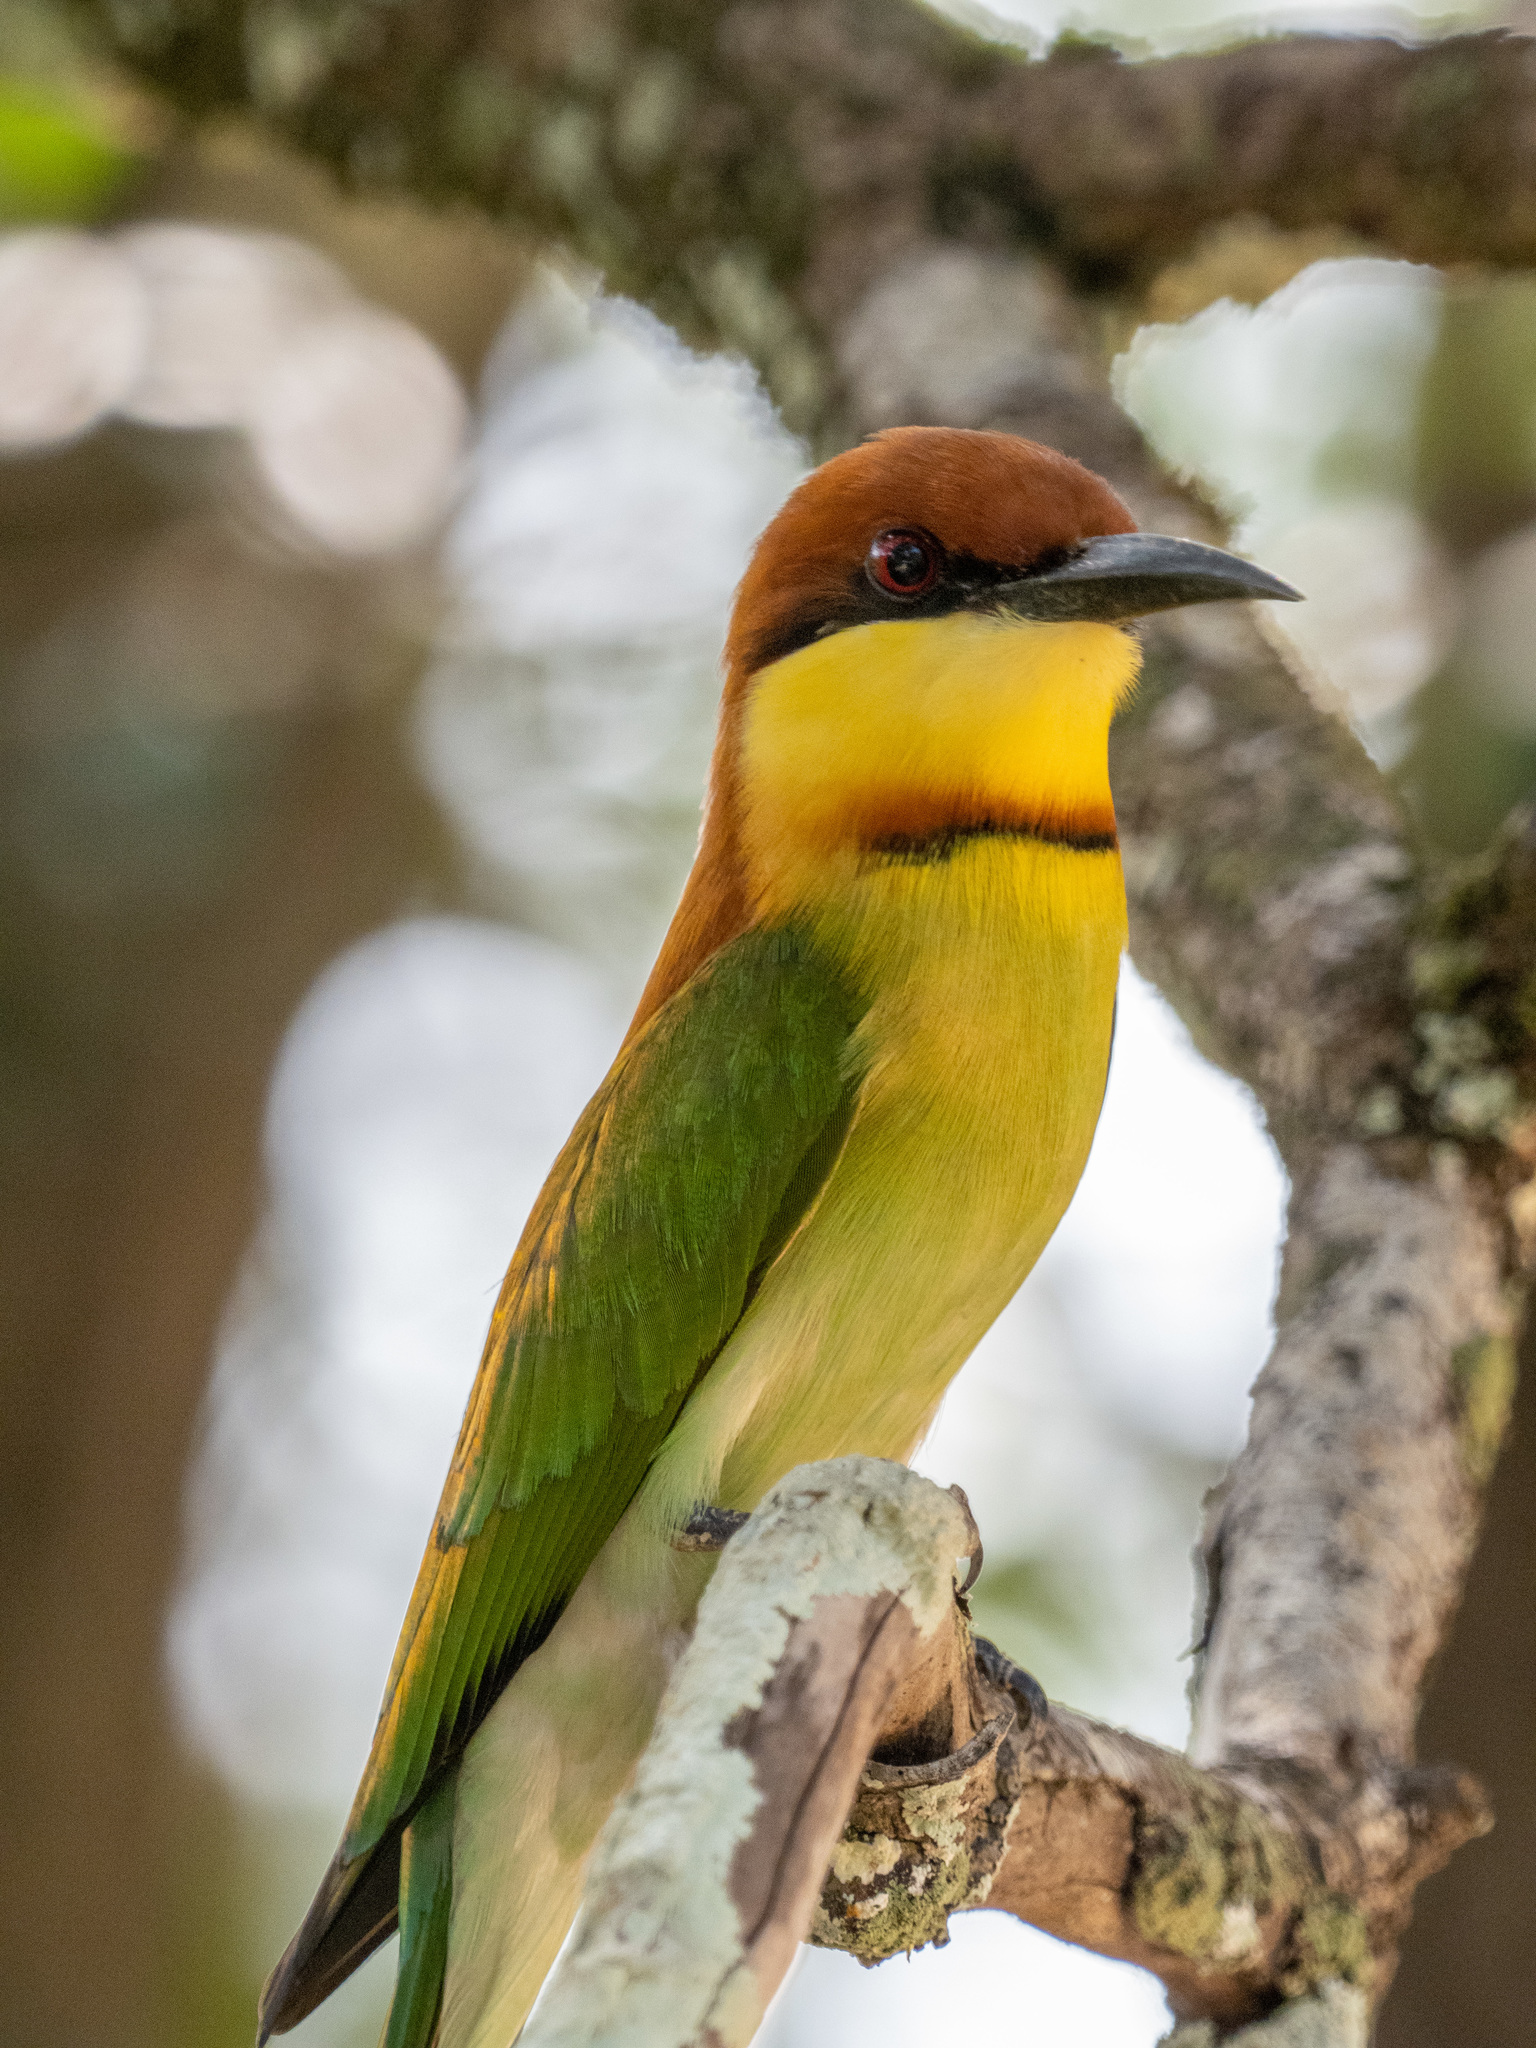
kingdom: Animalia
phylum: Chordata
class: Aves
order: Coraciiformes
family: Meropidae
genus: Merops
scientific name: Merops leschenaulti
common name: Chestnut-headed bee-eater
